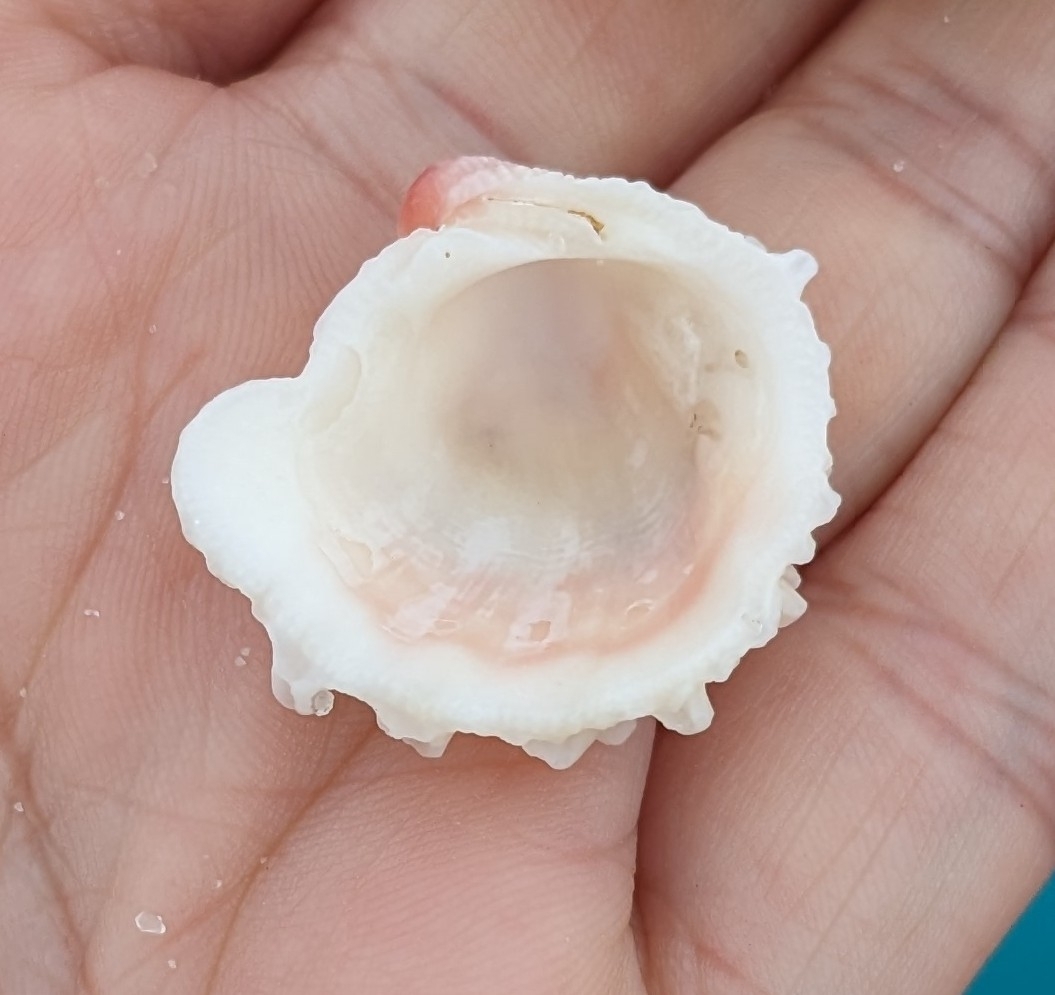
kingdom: Animalia
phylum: Mollusca
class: Bivalvia
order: Venerida
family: Chamidae
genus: Arcinella
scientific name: Arcinella cornuta
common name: Florida spiny jewel box
